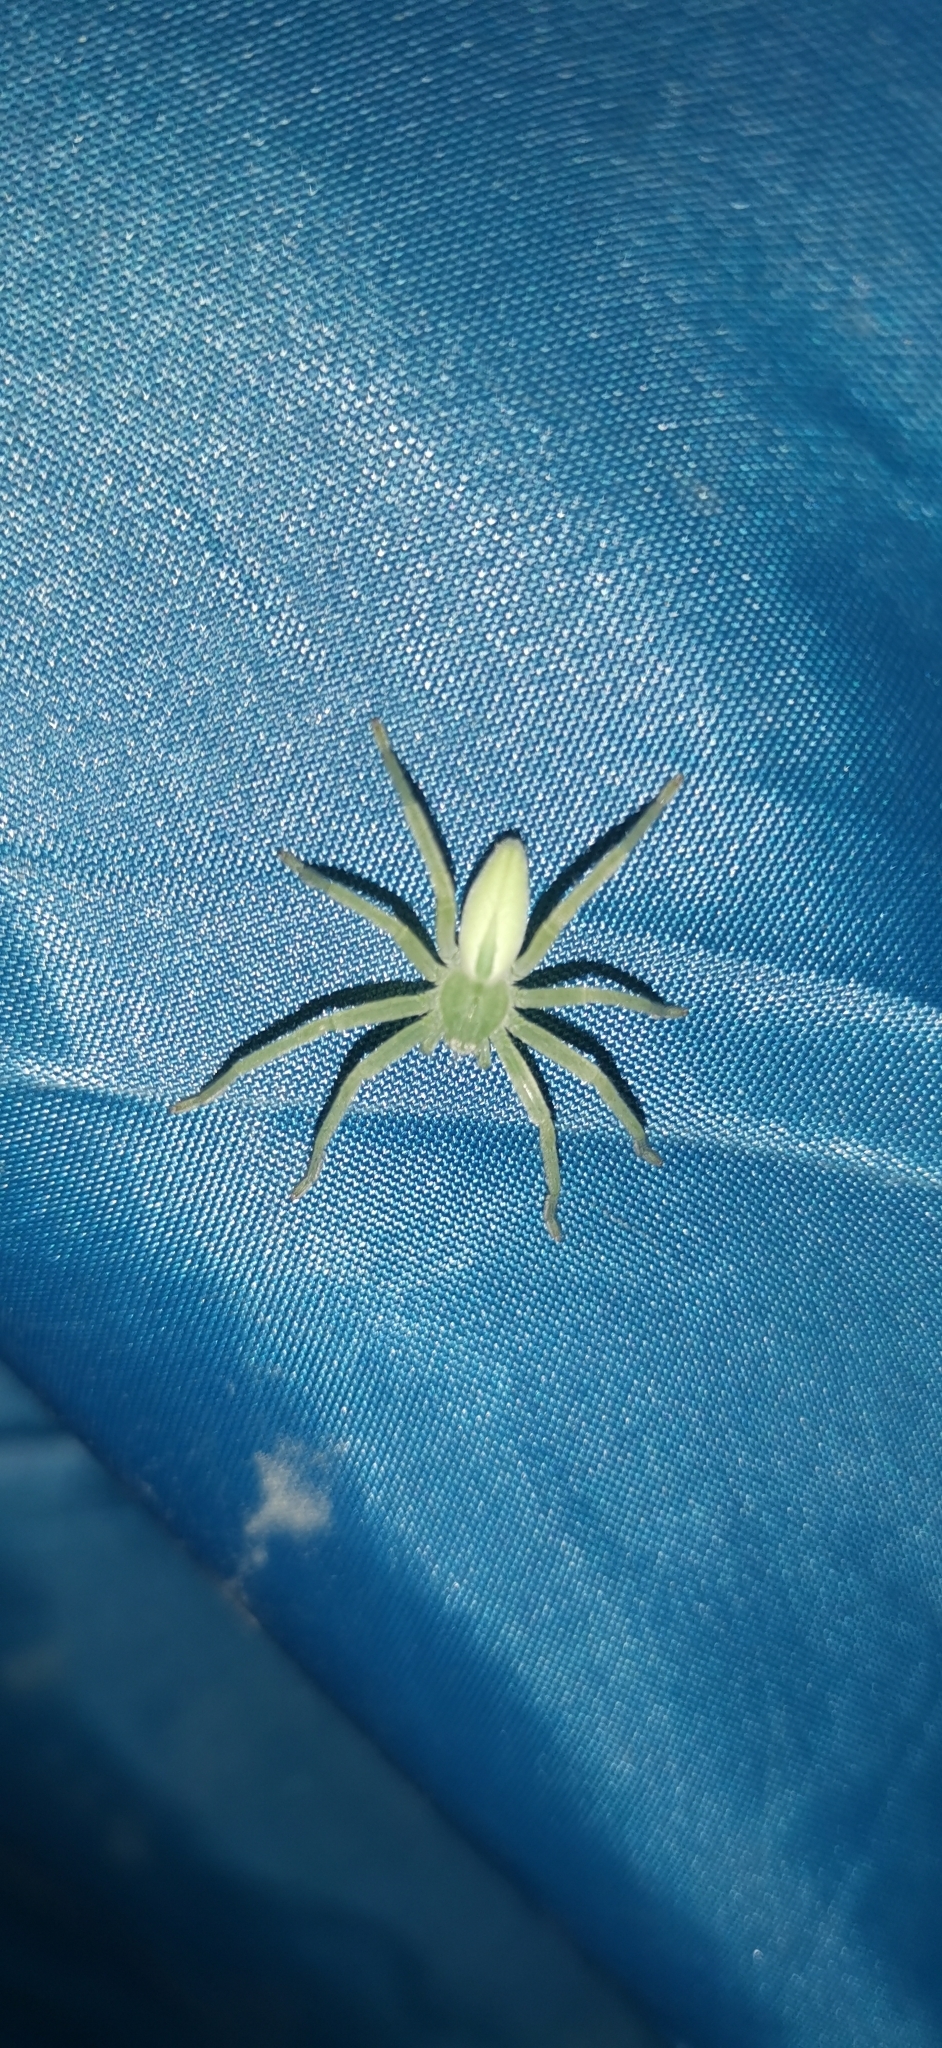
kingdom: Animalia
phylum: Arthropoda
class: Arachnida
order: Araneae
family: Sparassidae
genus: Micrommata
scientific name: Micrommata virescens
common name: Green spider
